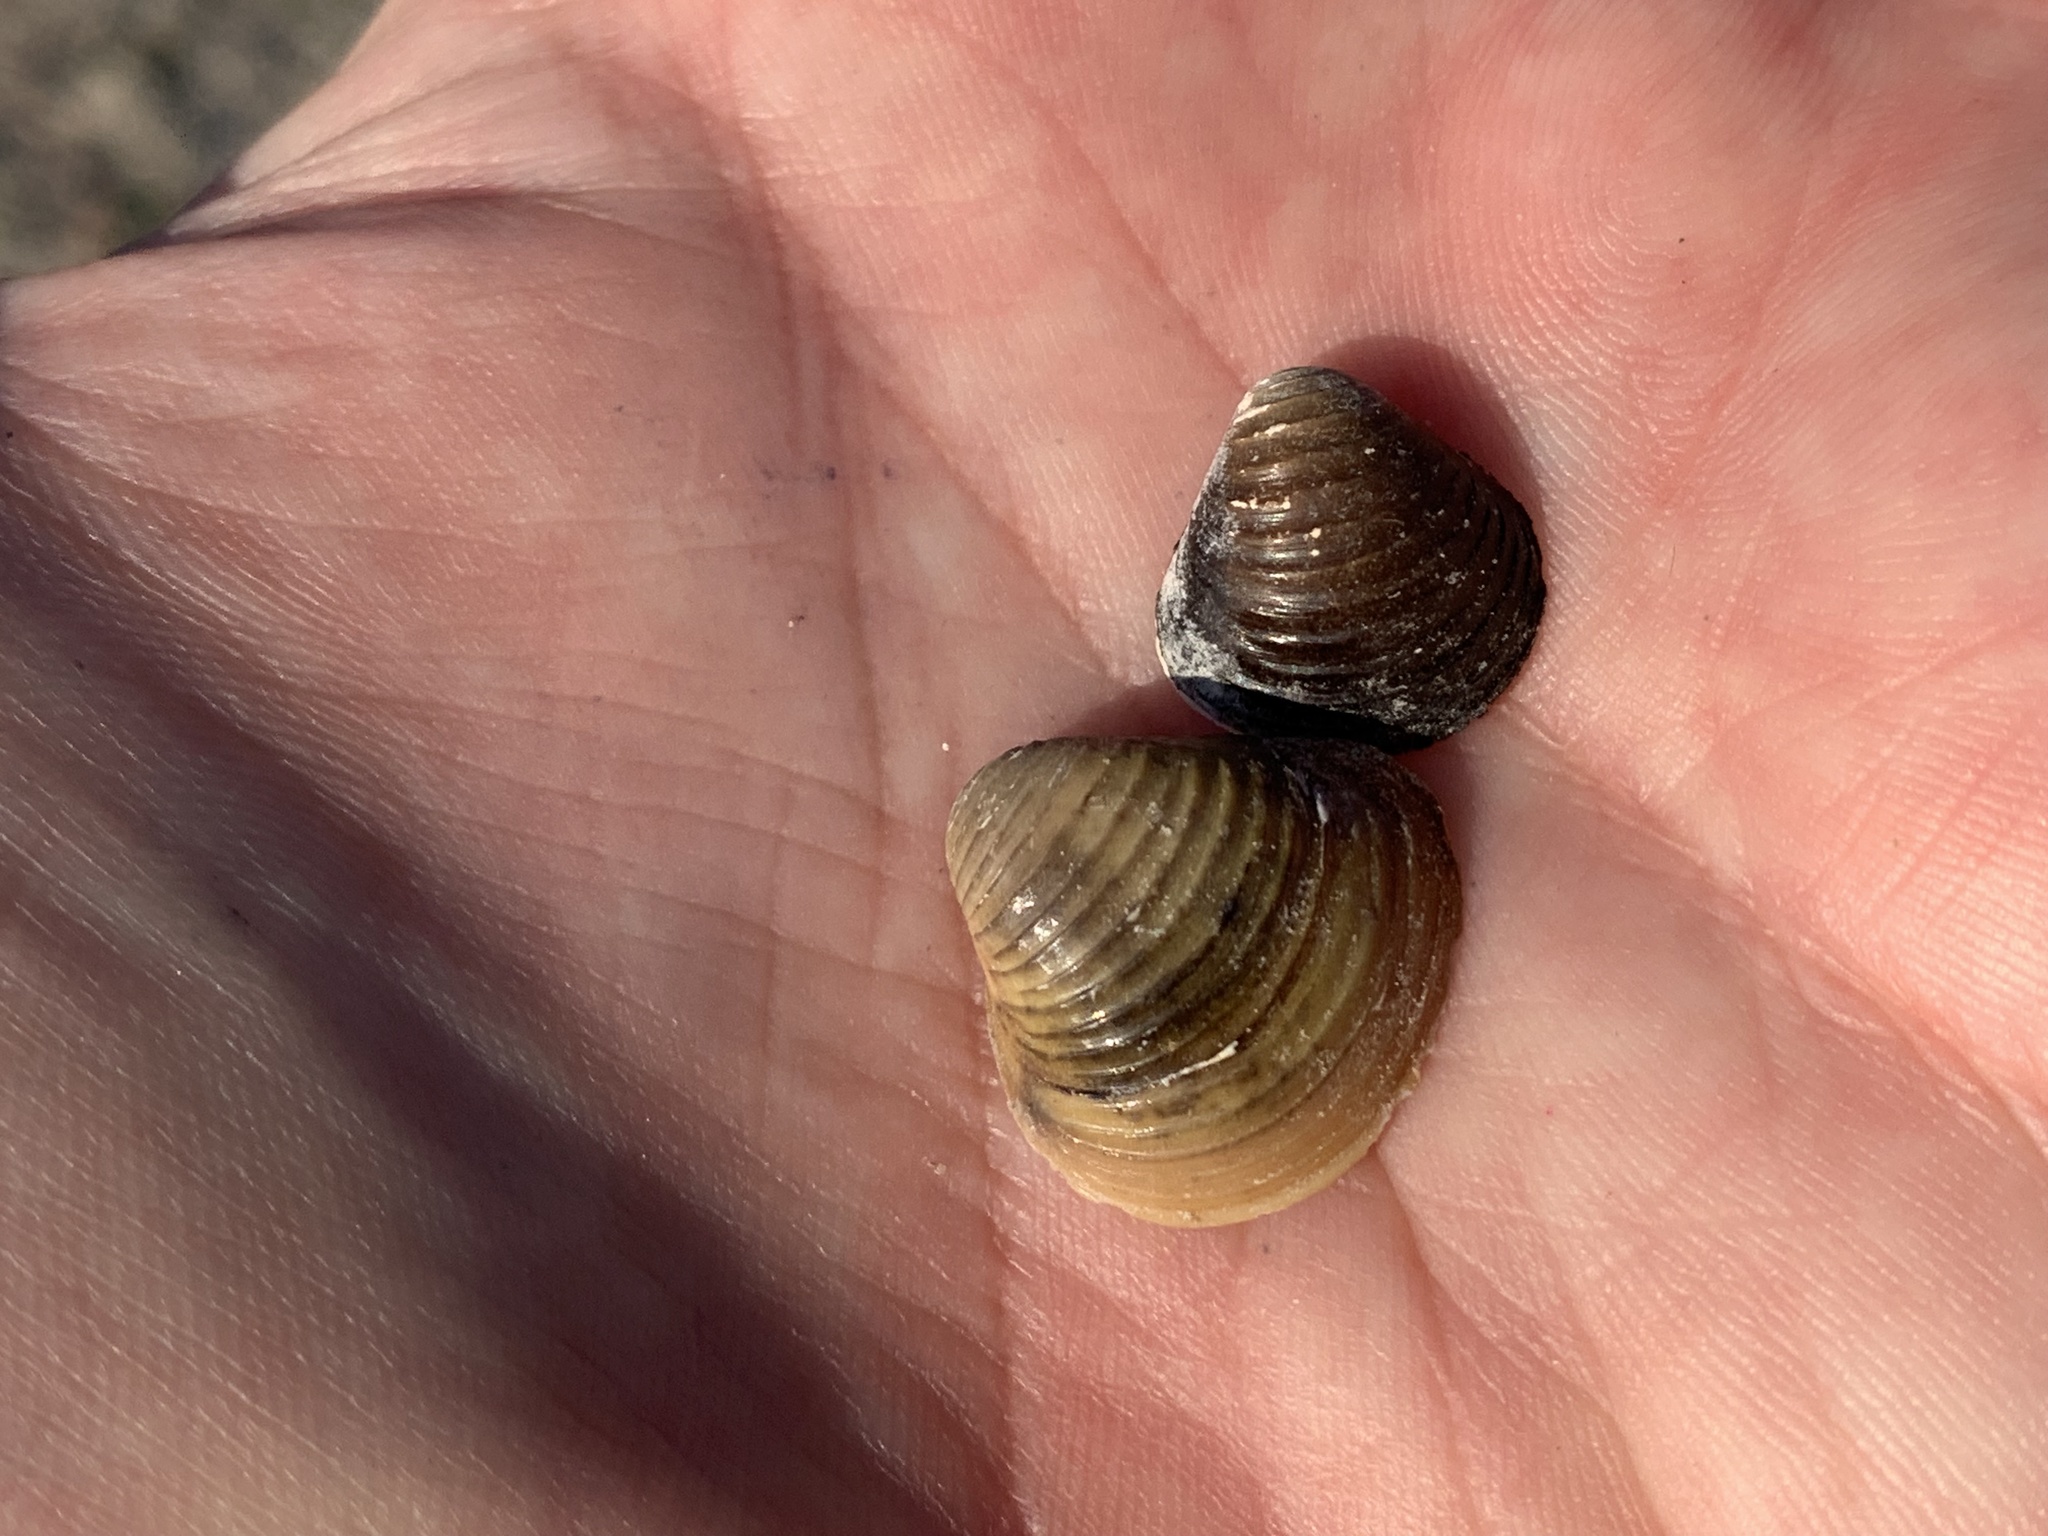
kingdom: Animalia
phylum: Mollusca
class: Bivalvia
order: Venerida
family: Cyrenidae
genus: Corbicula
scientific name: Corbicula fluminea
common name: Asian clam
